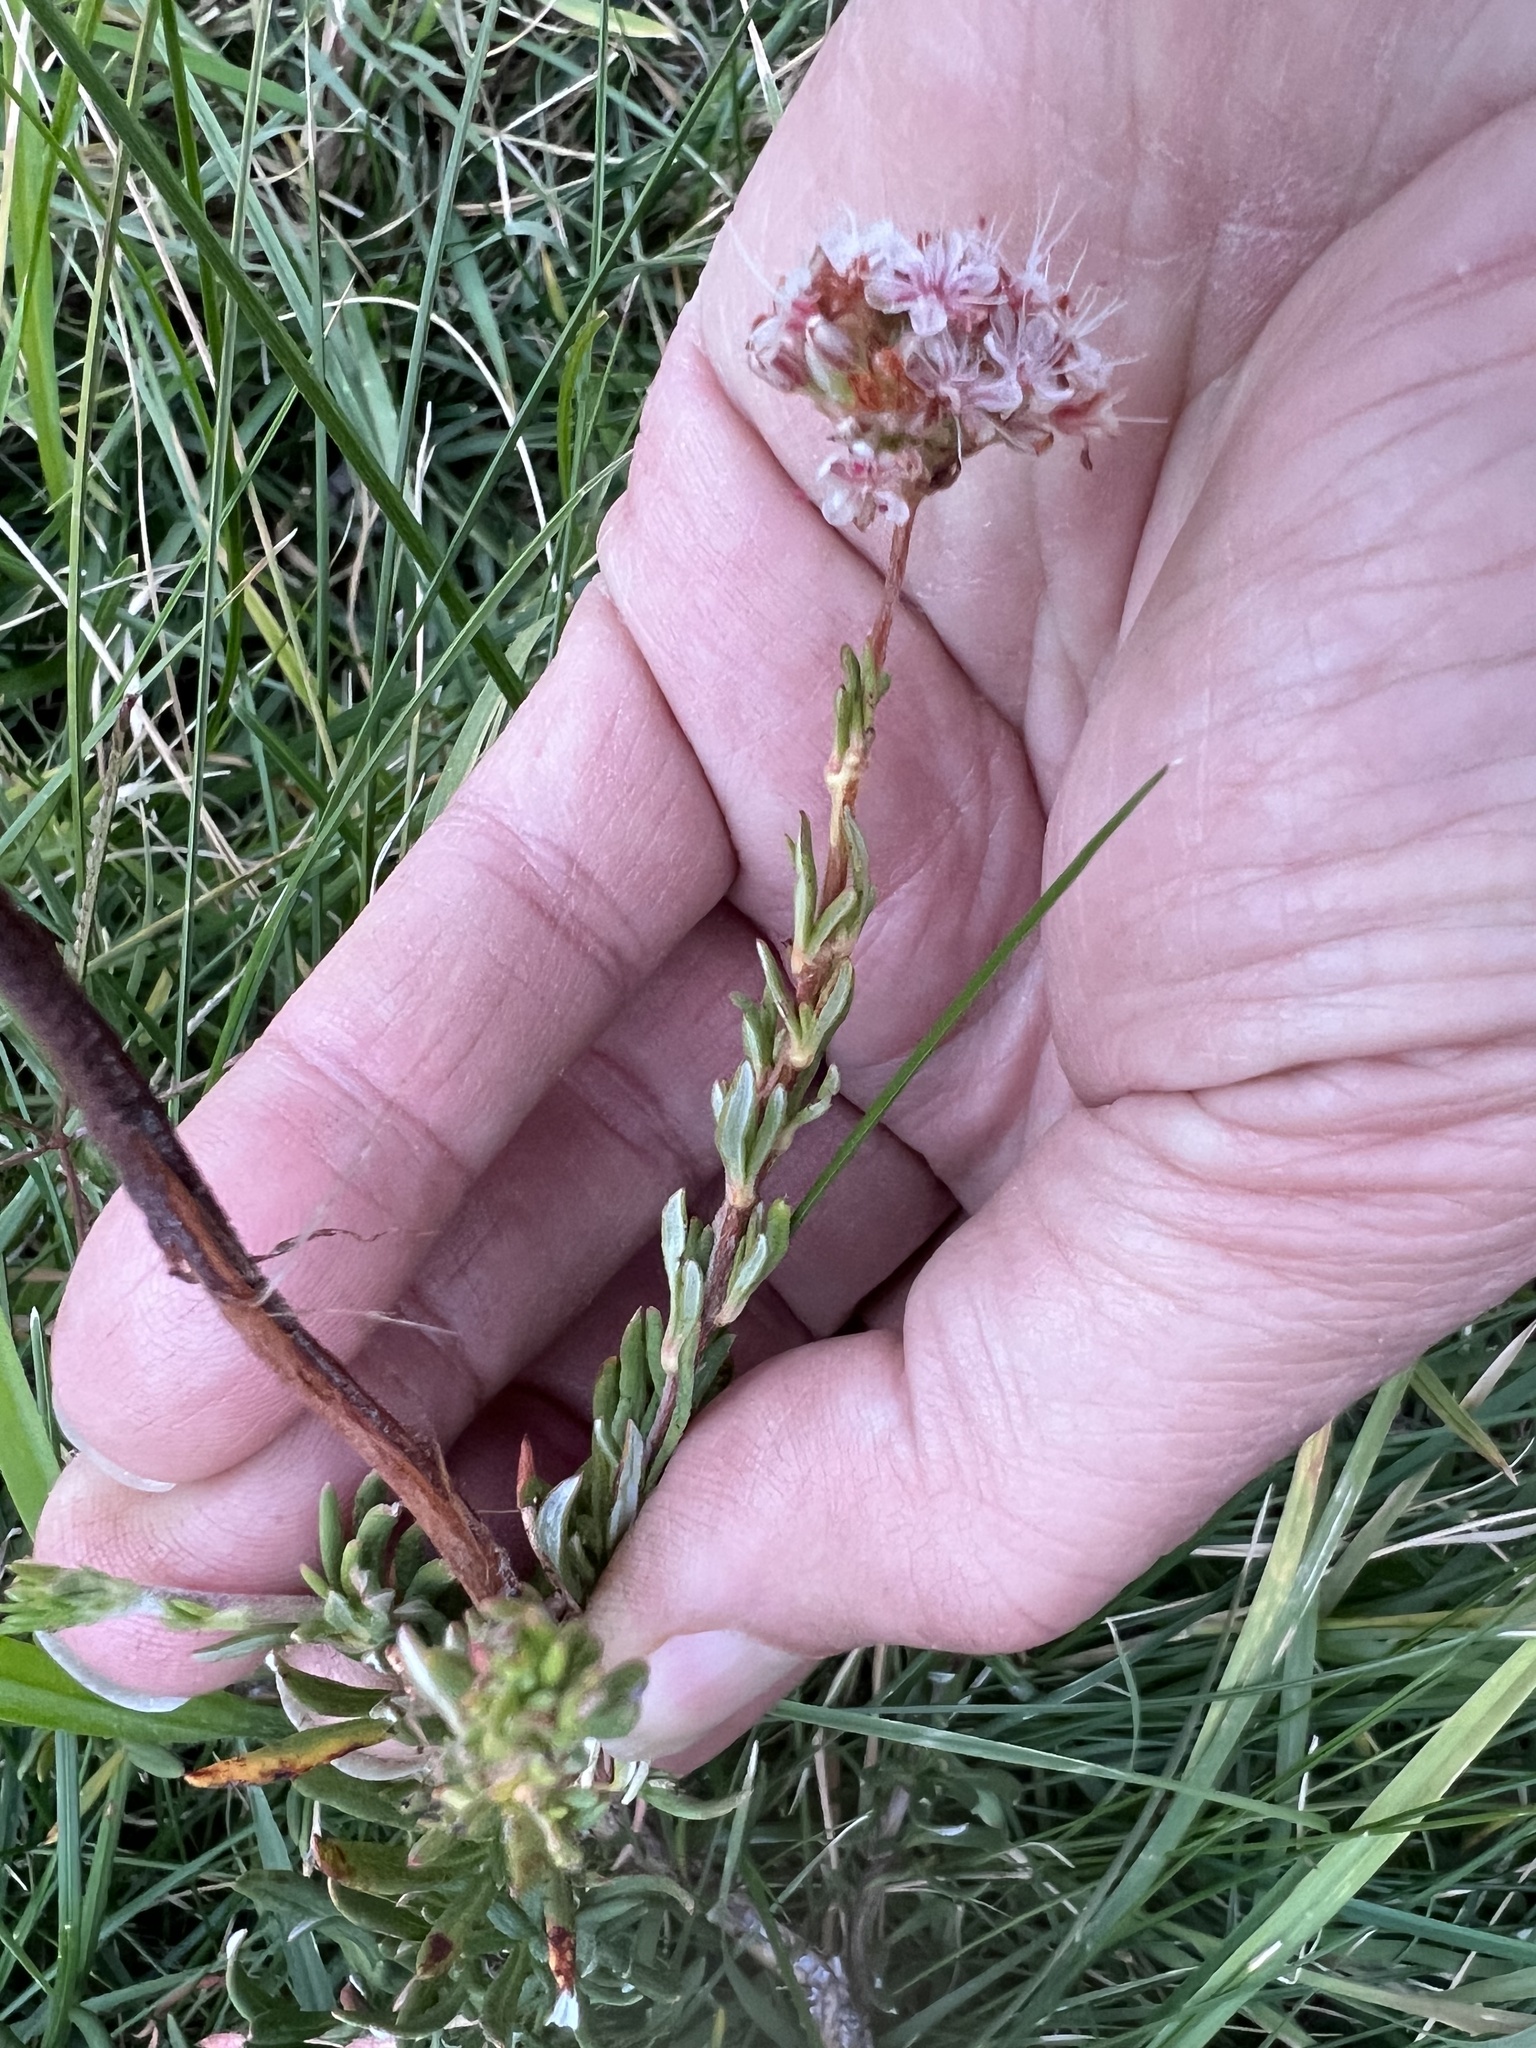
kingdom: Plantae
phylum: Tracheophyta
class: Magnoliopsida
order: Caryophyllales
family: Polygonaceae
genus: Eriogonum
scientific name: Eriogonum fasciculatum
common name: California wild buckwheat
